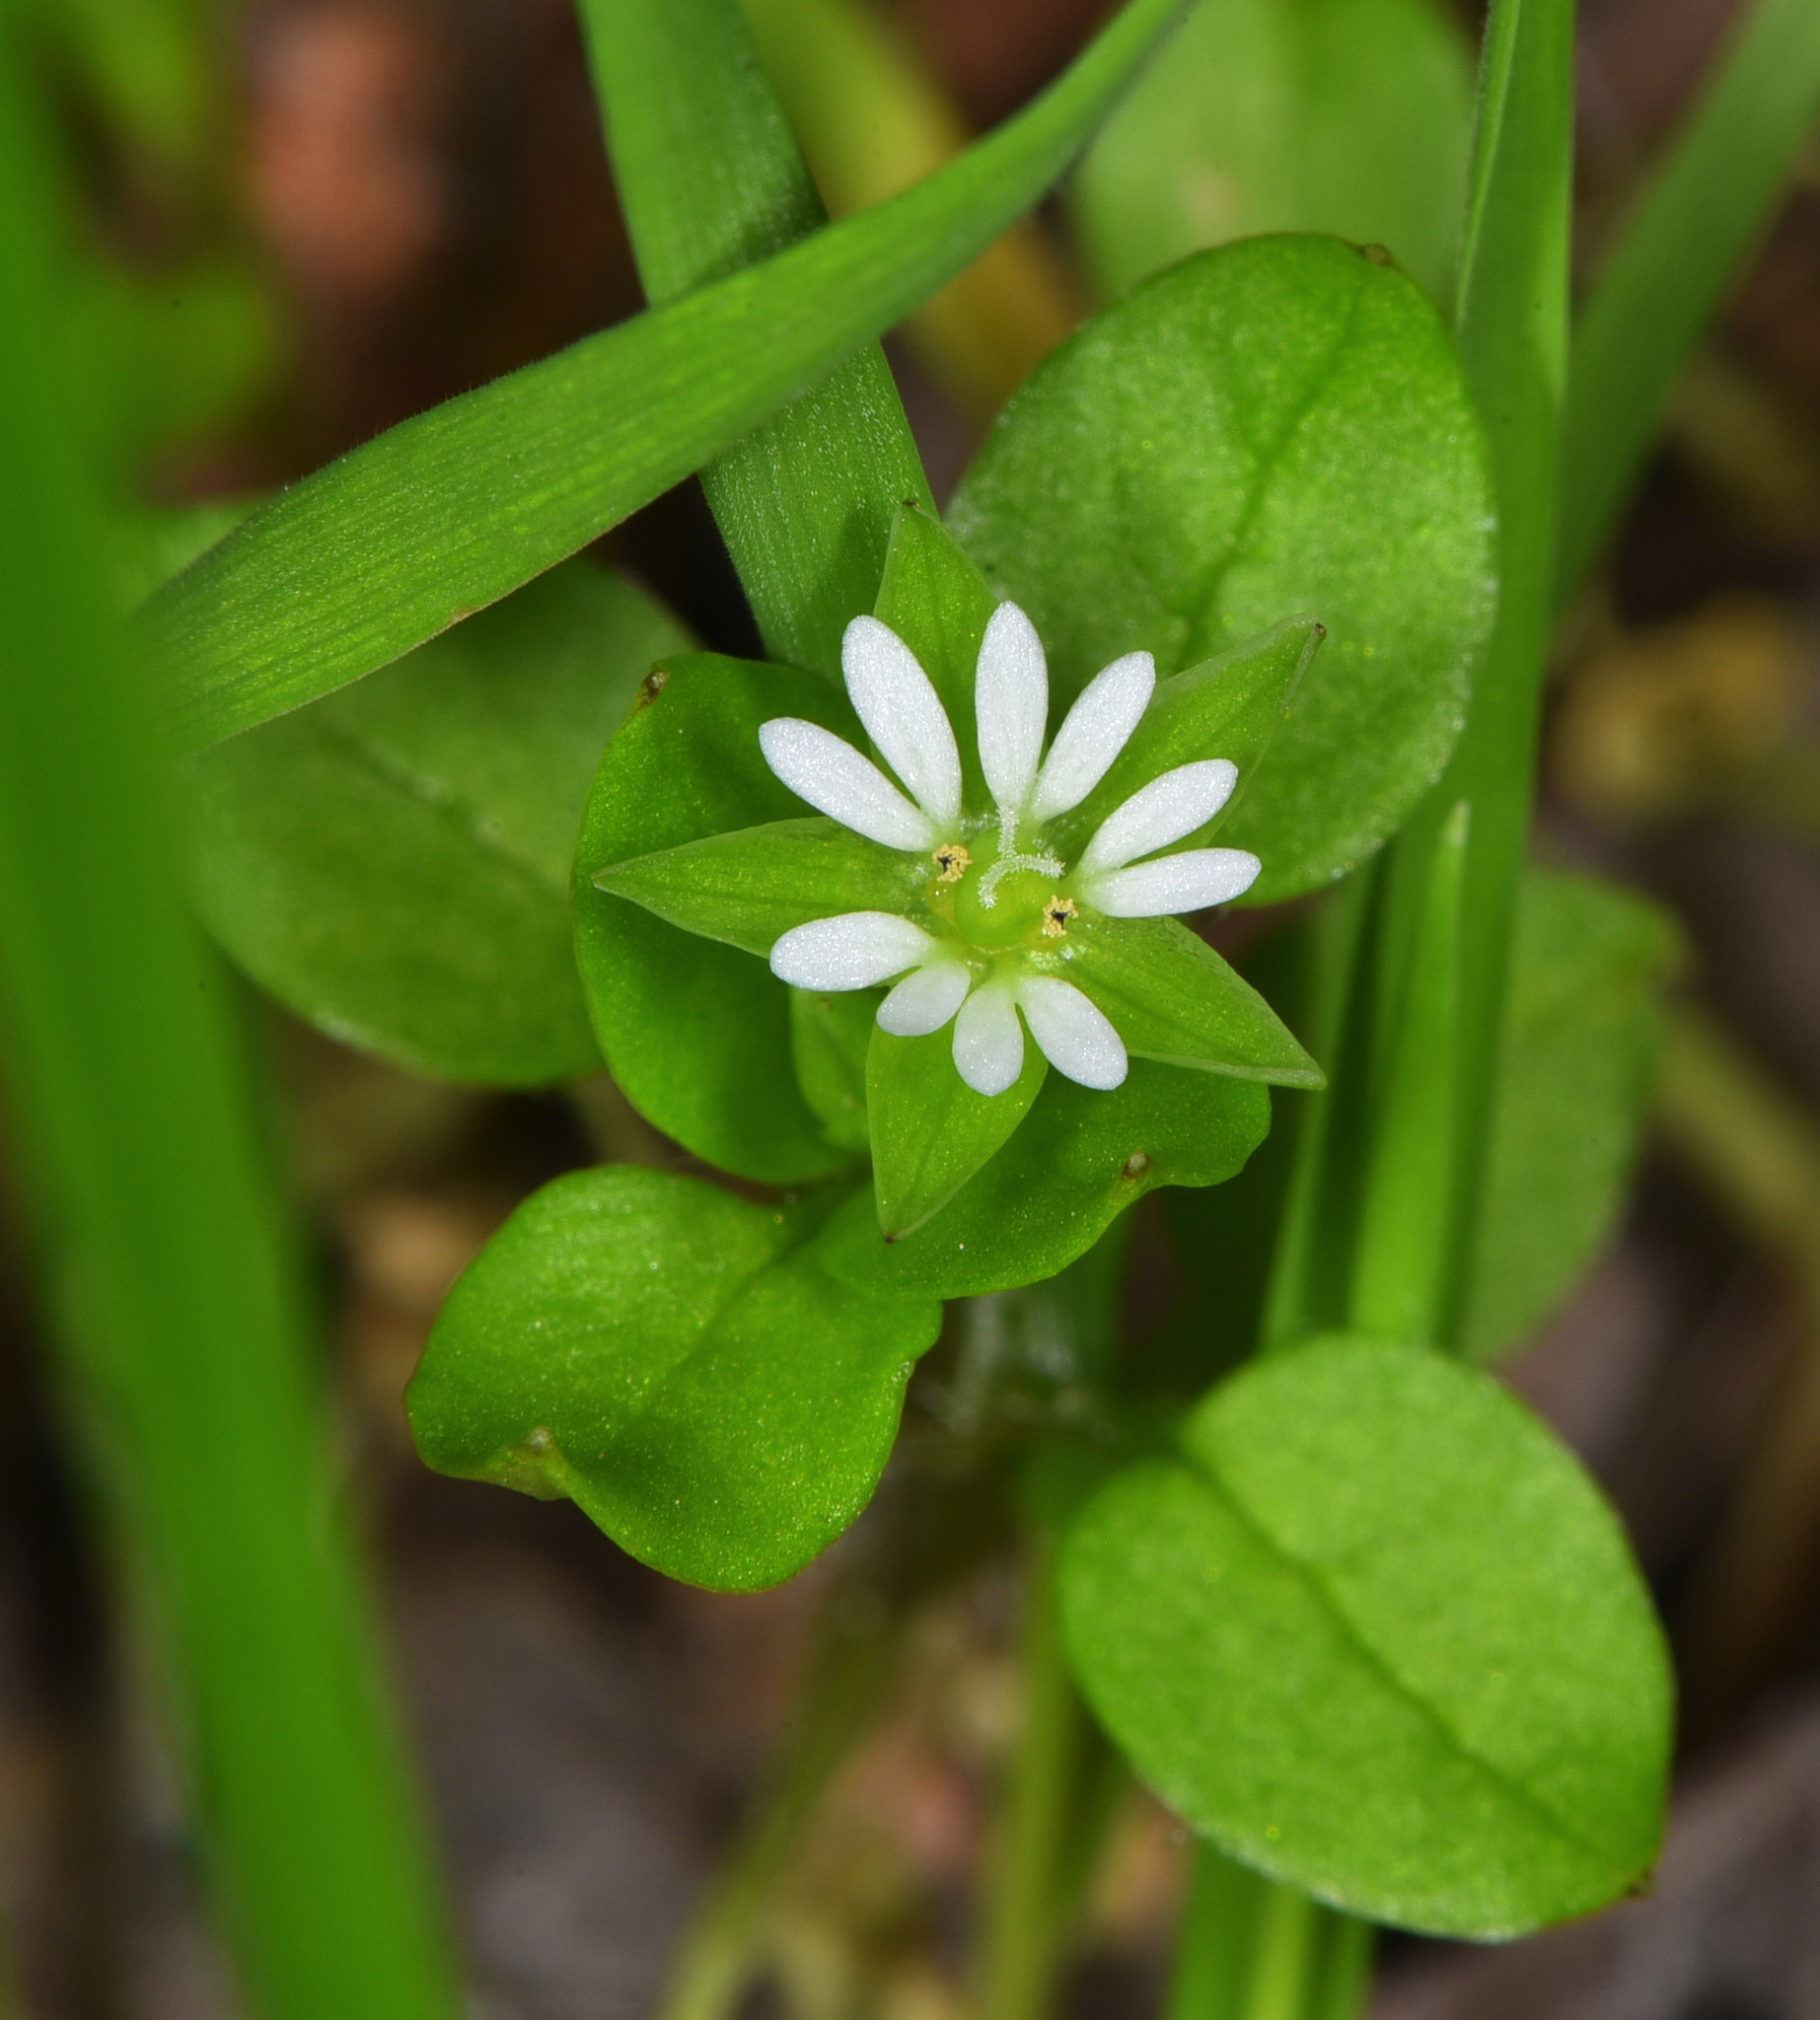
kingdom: Plantae
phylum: Tracheophyta
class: Magnoliopsida
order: Caryophyllales
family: Caryophyllaceae
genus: Stellaria
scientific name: Stellaria media
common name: Common chickweed
